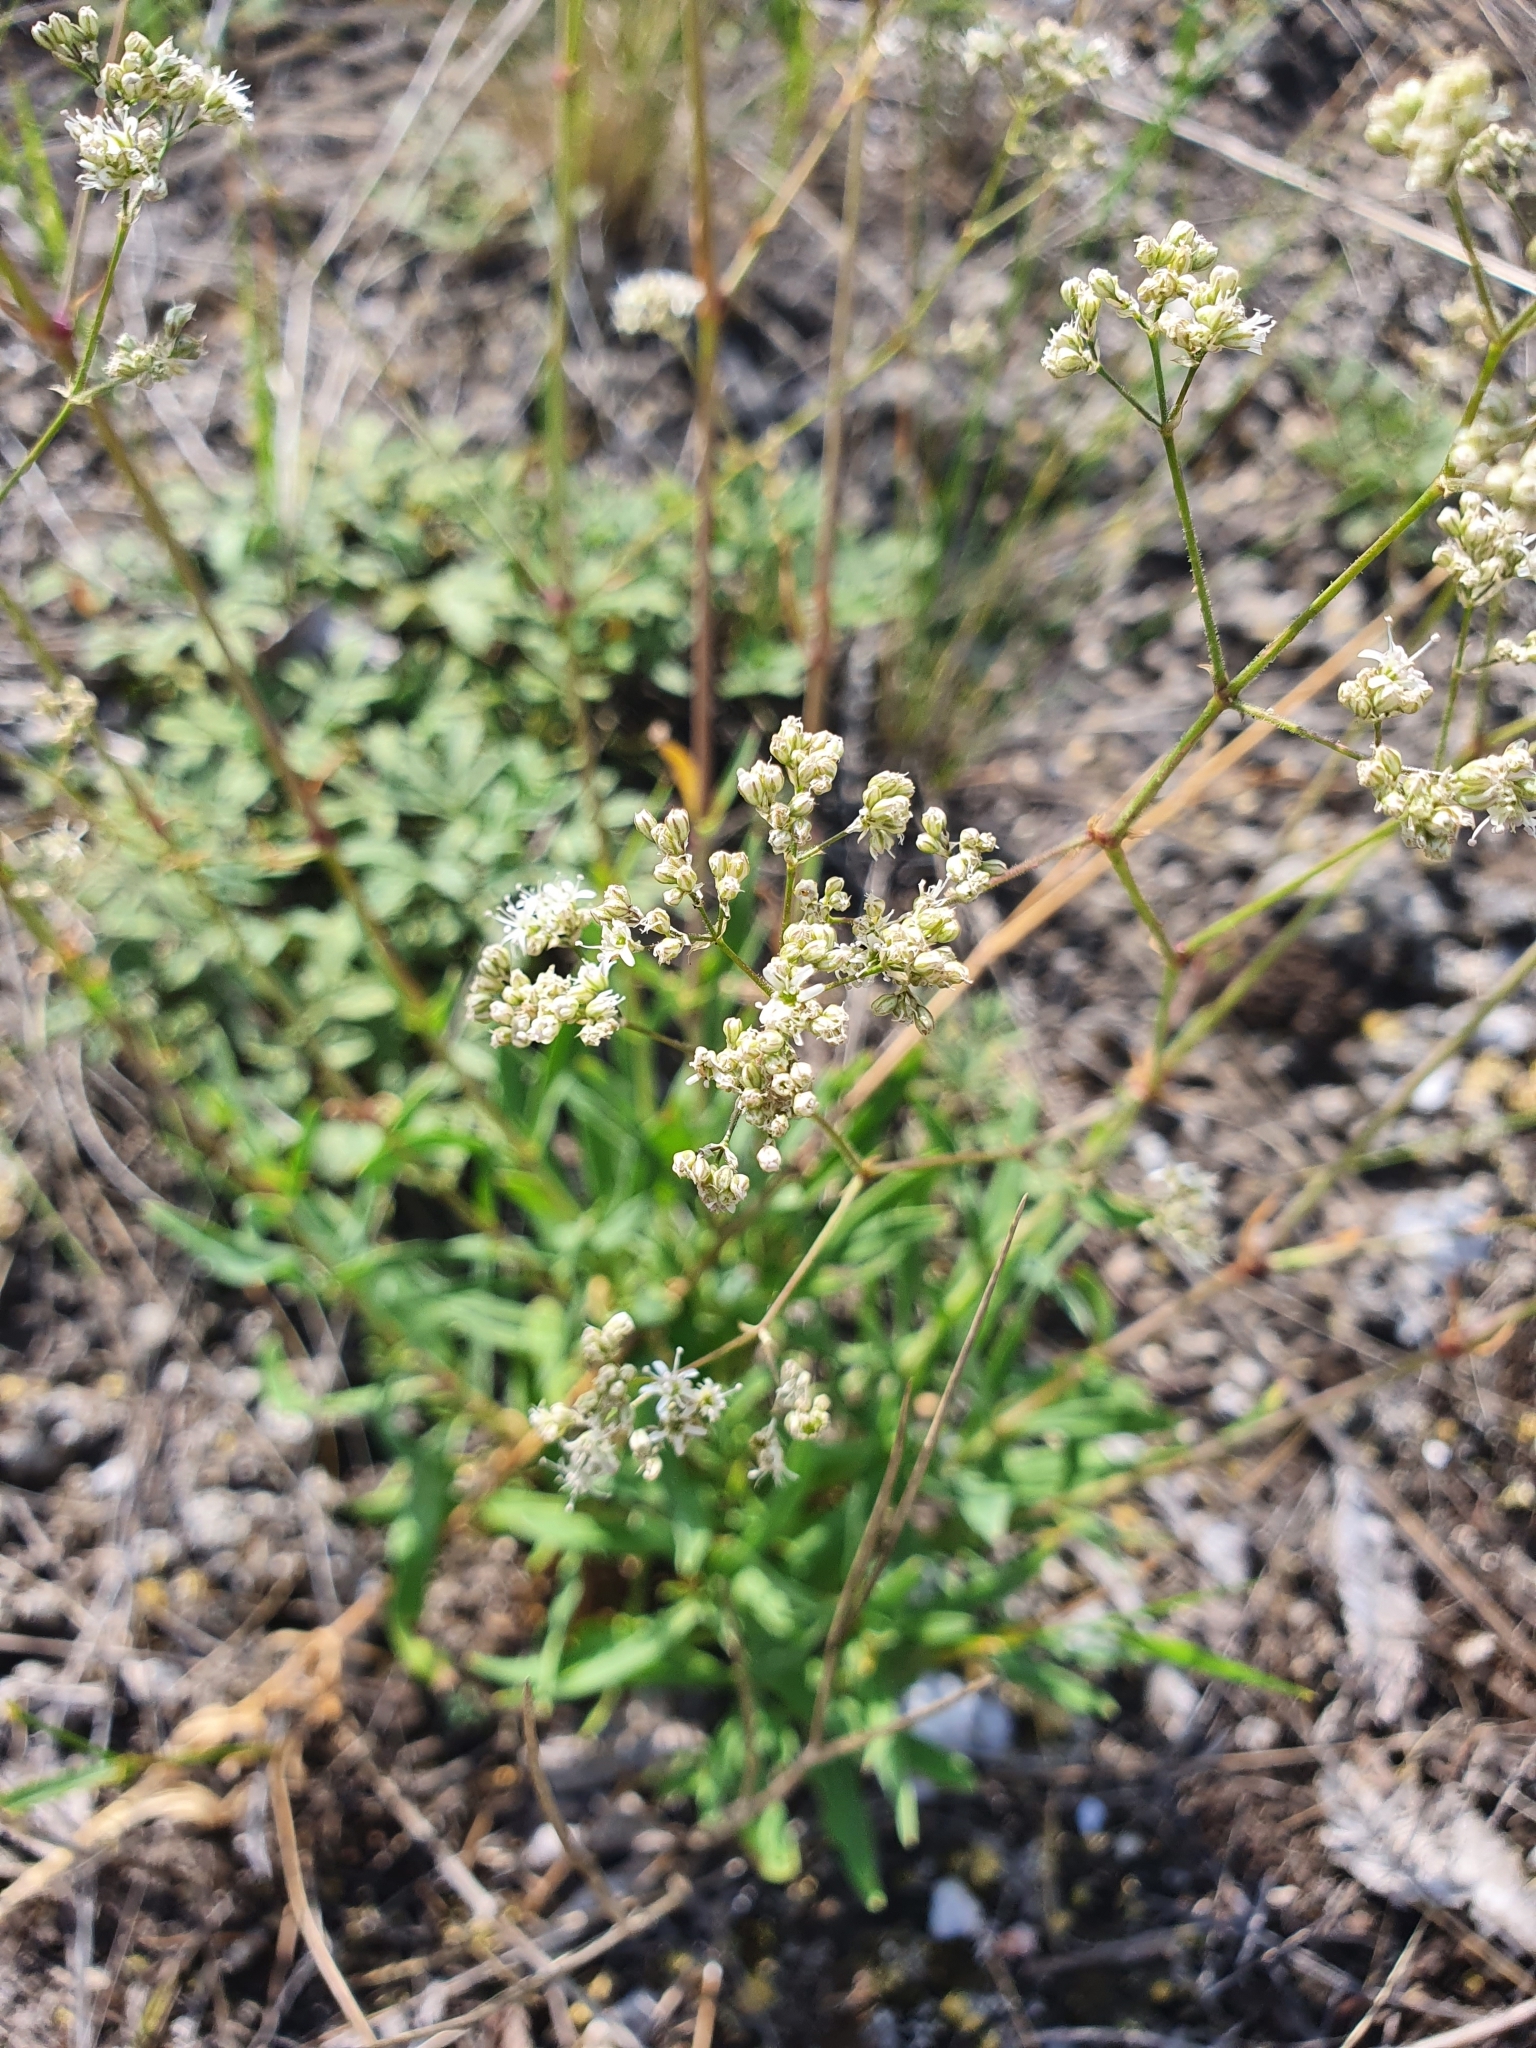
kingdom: Plantae
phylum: Tracheophyta
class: Magnoliopsida
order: Caryophyllales
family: Caryophyllaceae
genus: Gypsophila
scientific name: Gypsophila altissima
